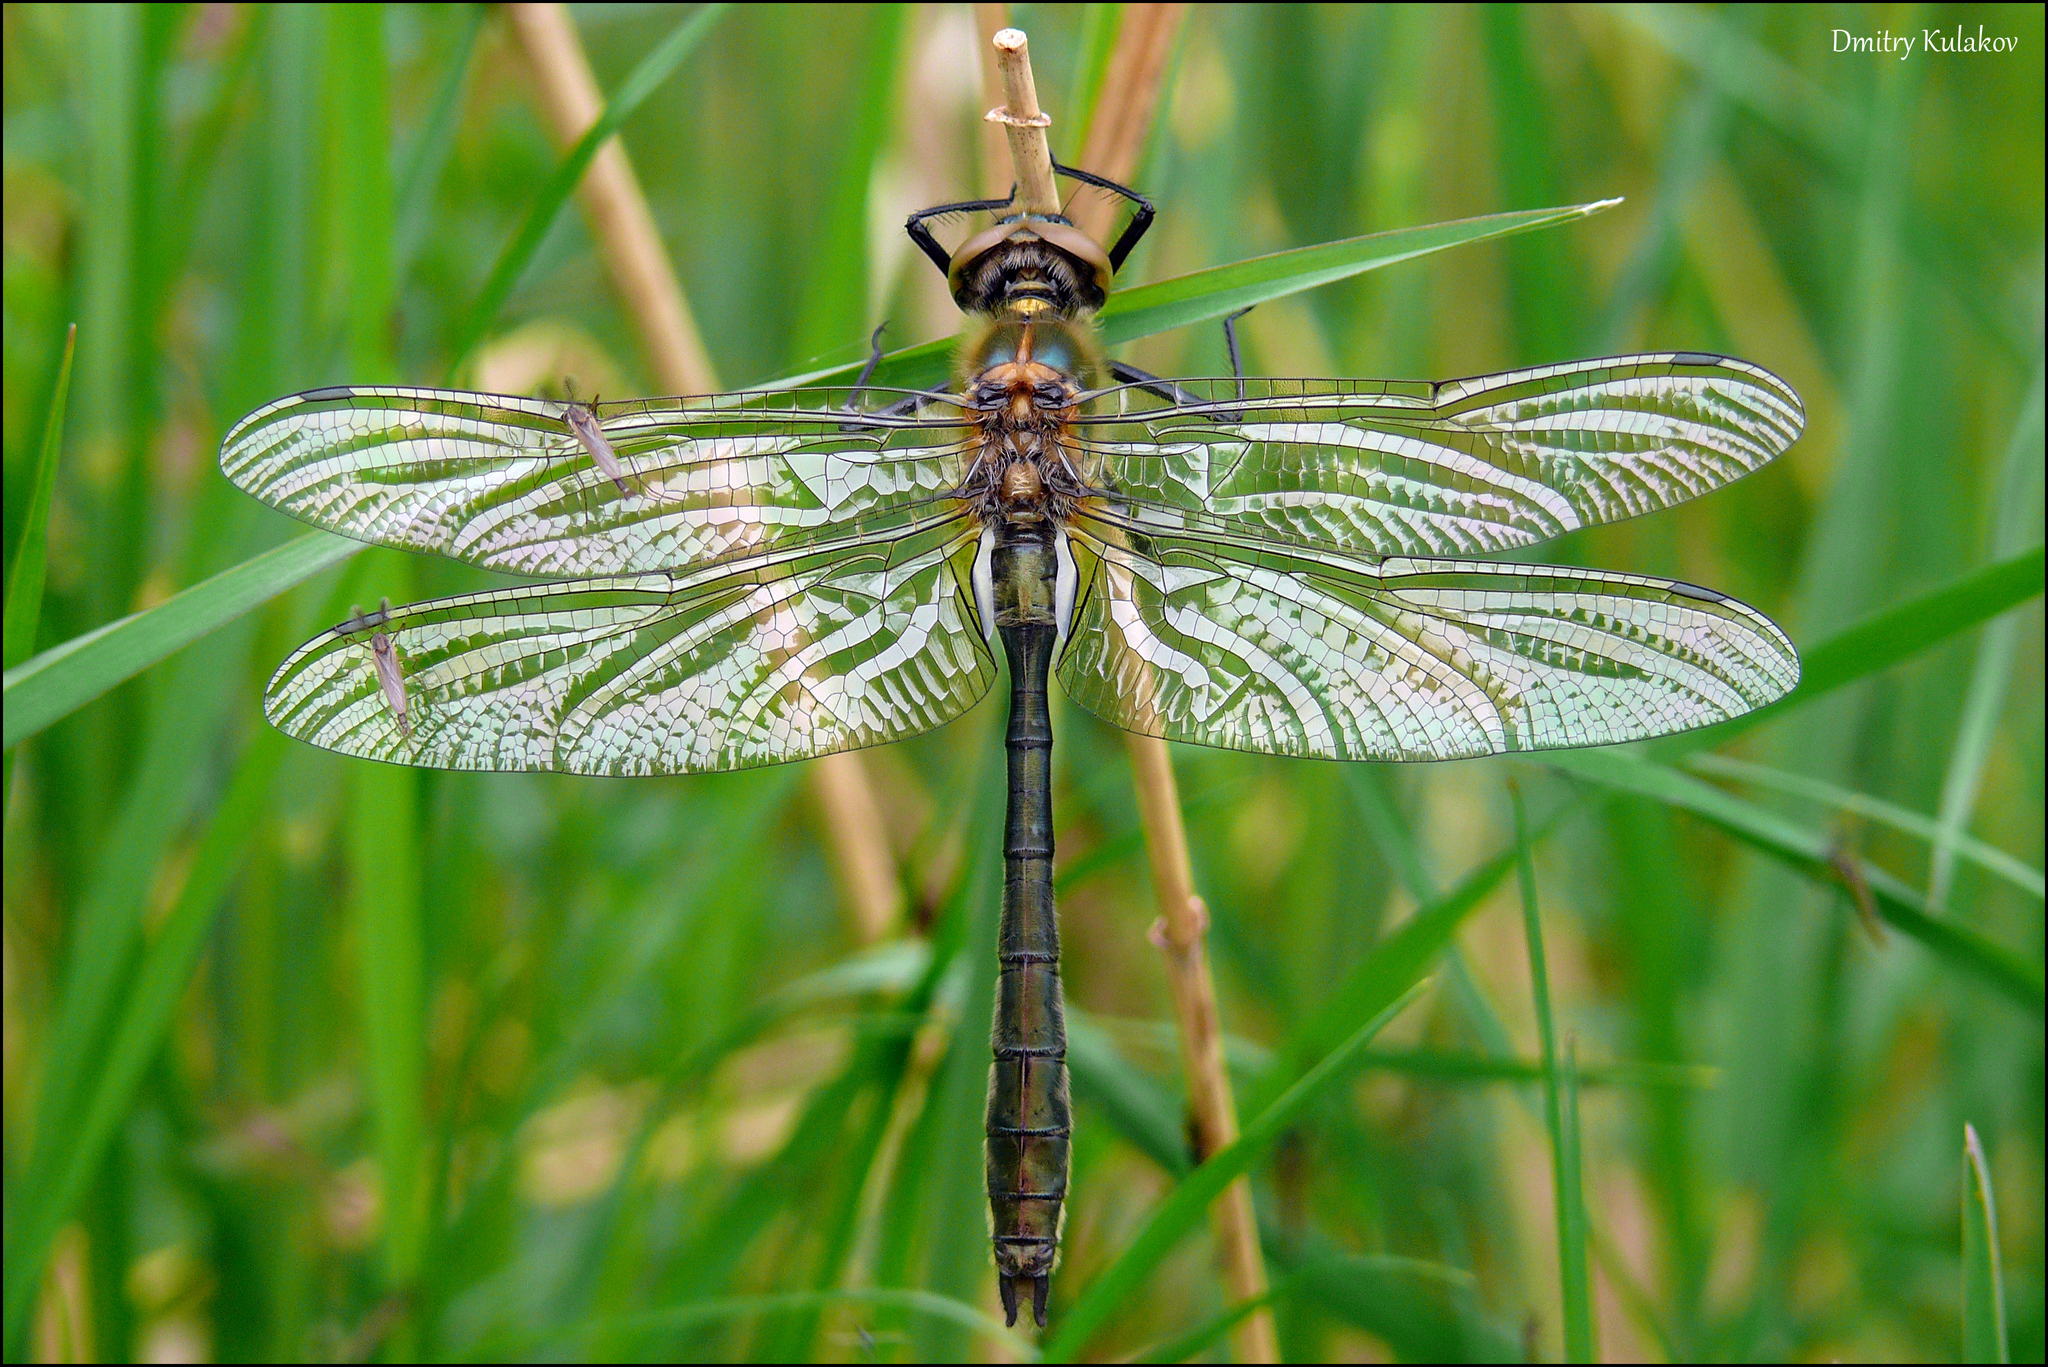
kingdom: Animalia
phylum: Arthropoda
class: Insecta
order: Odonata
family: Corduliidae
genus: Cordulia
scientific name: Cordulia aenea
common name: Downy emerald
